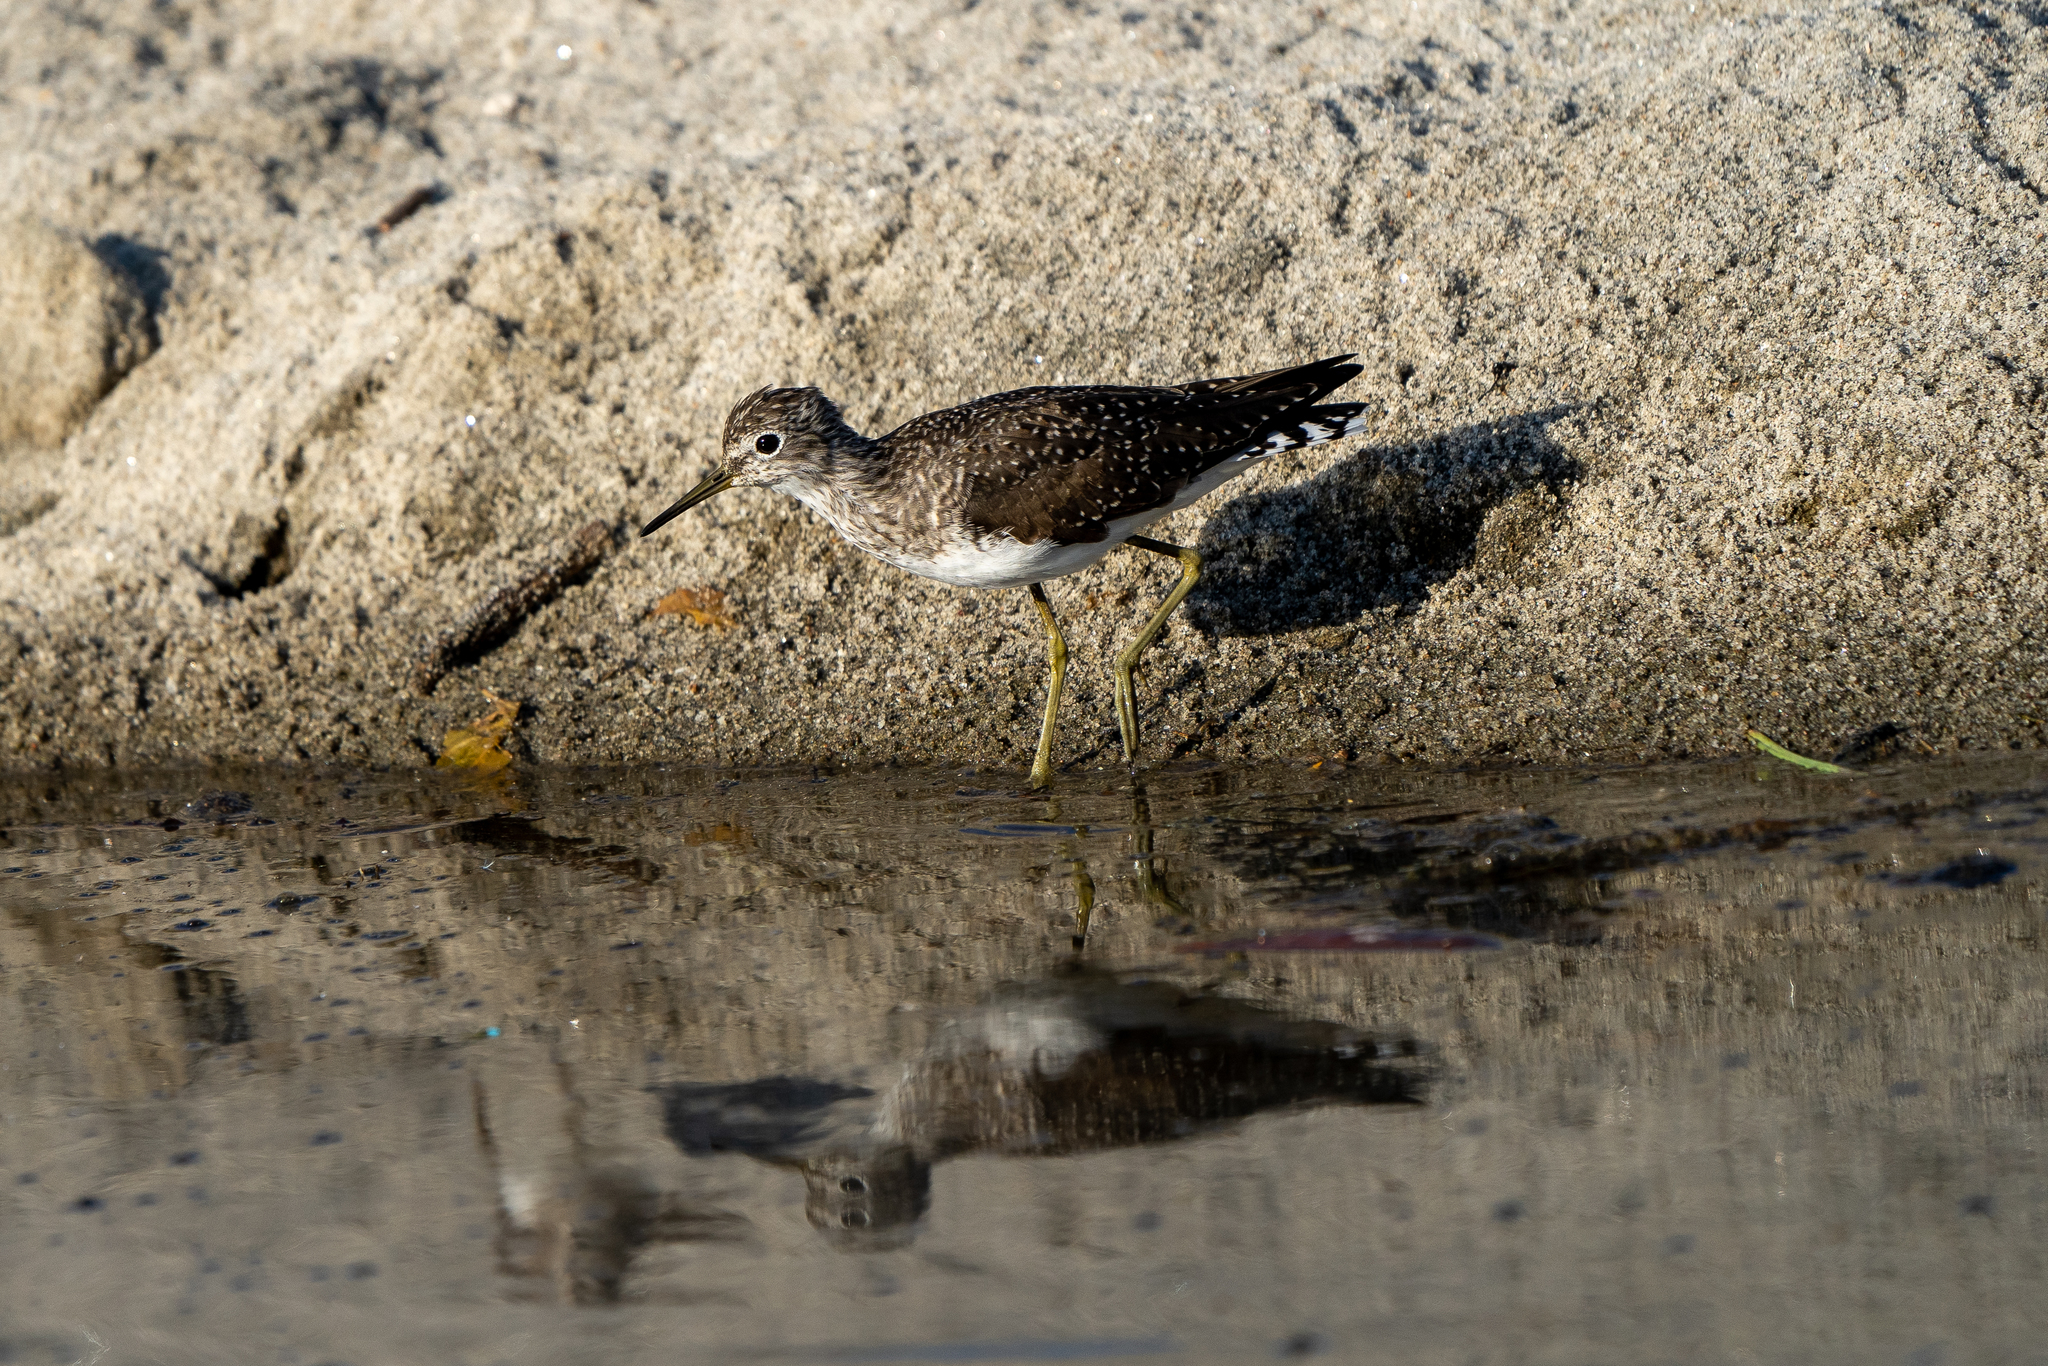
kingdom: Animalia
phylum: Chordata
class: Aves
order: Charadriiformes
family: Scolopacidae
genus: Tringa
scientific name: Tringa solitaria
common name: Solitary sandpiper
